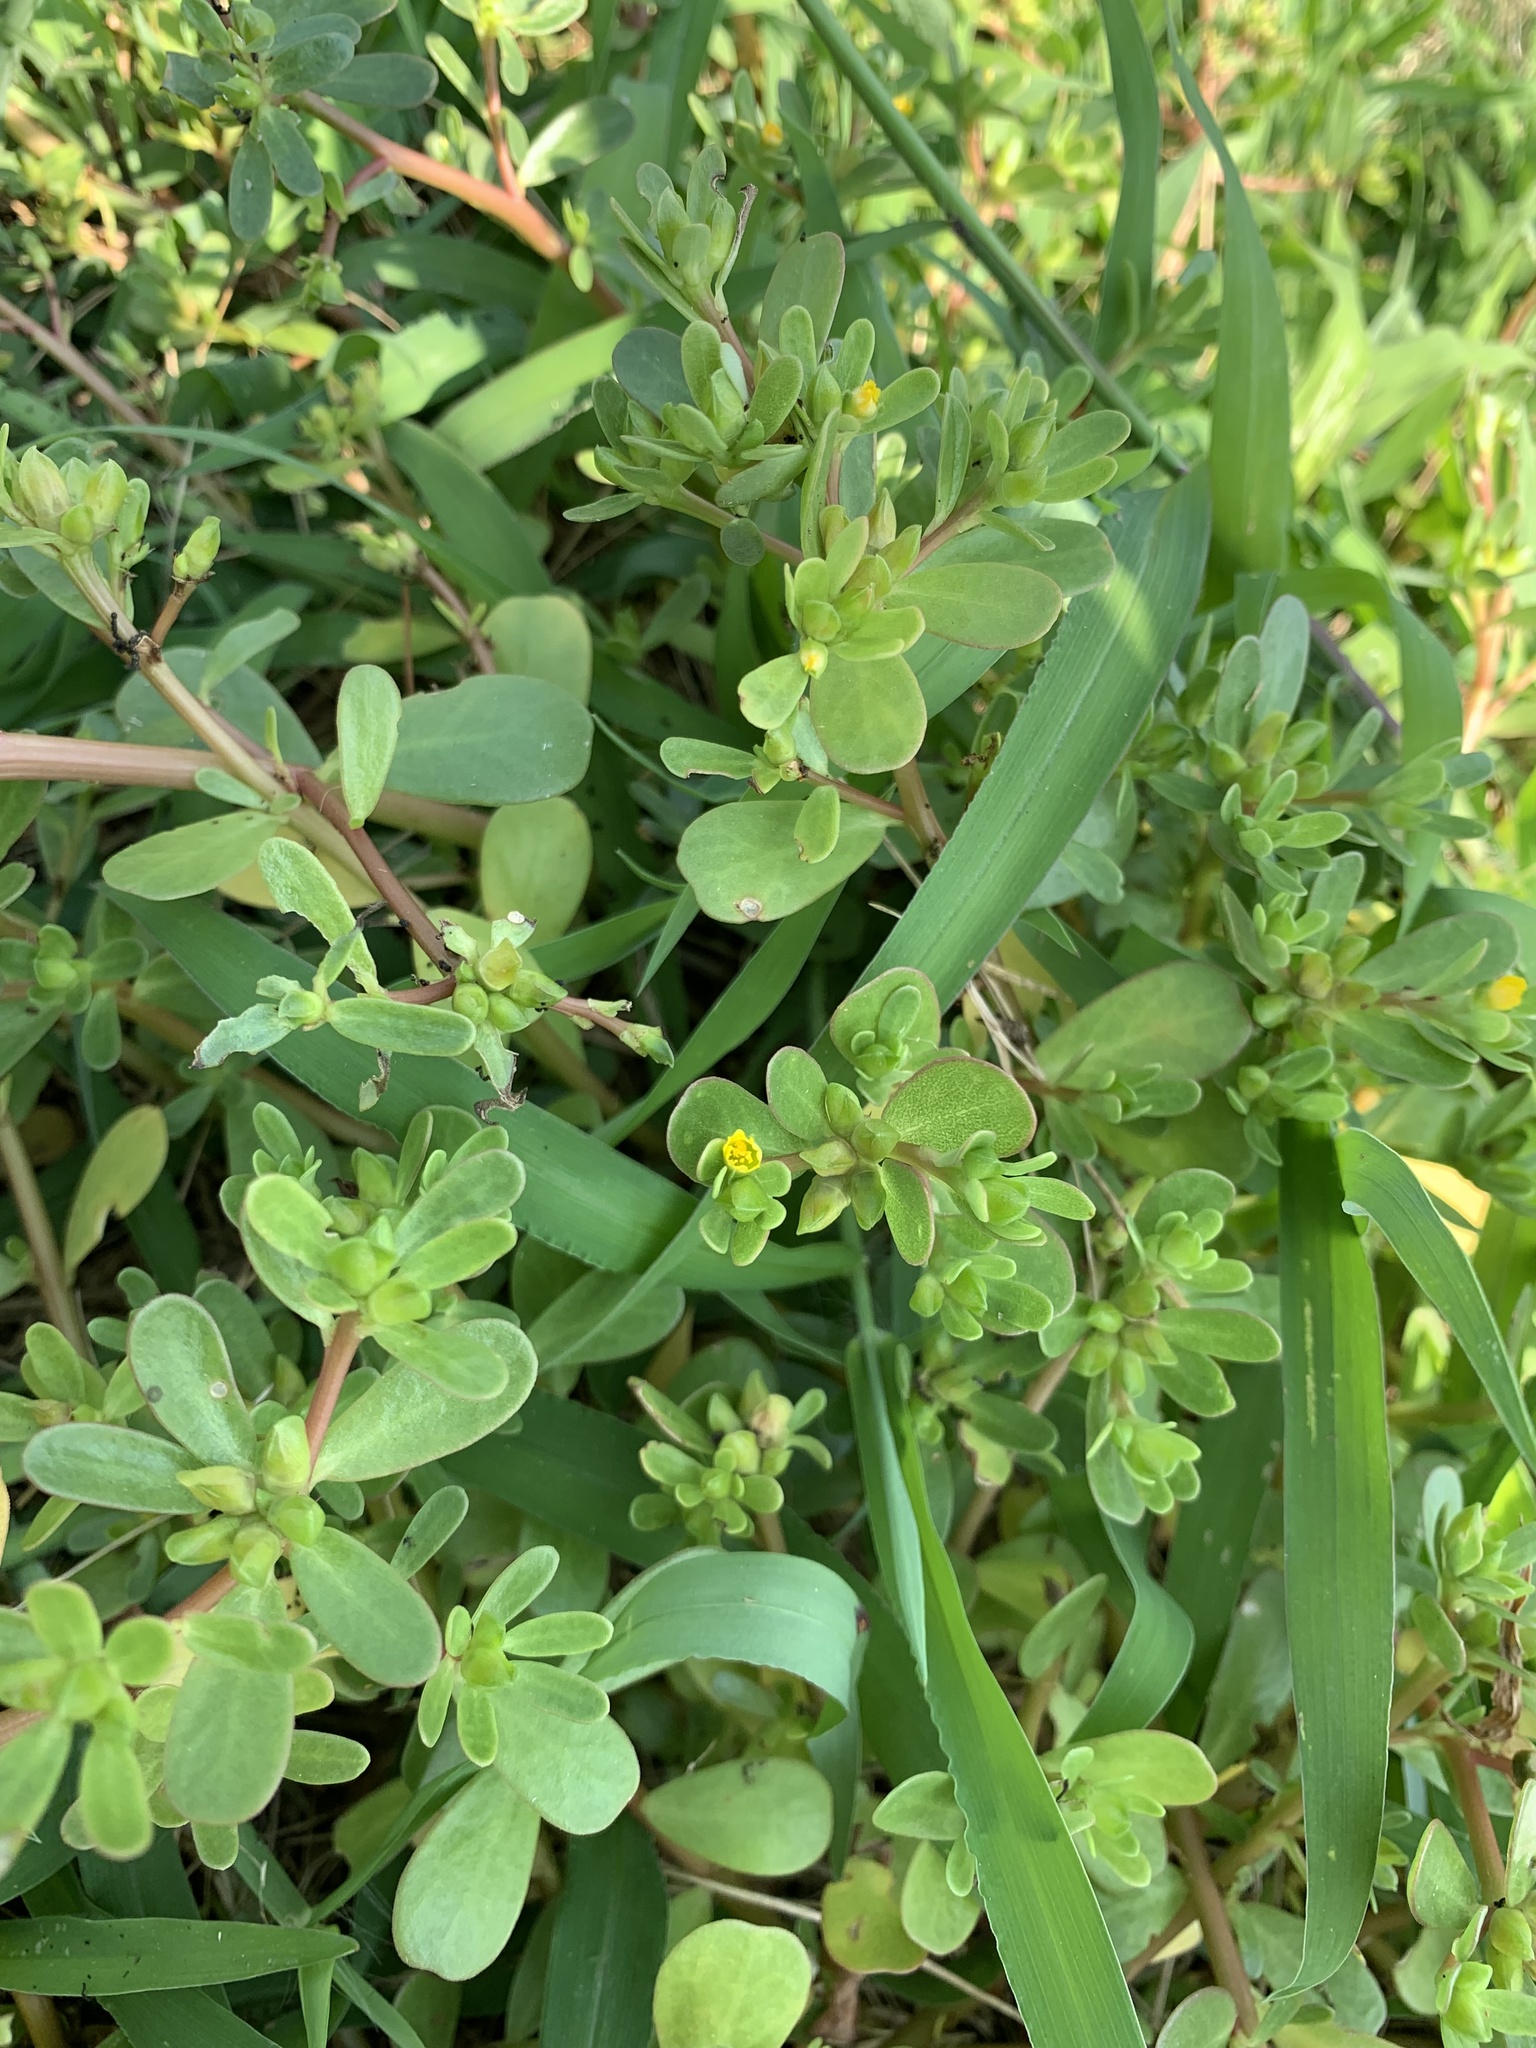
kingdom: Plantae
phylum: Tracheophyta
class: Magnoliopsida
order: Caryophyllales
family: Portulacaceae
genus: Portulaca
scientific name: Portulaca oleracea
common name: Common purslane
